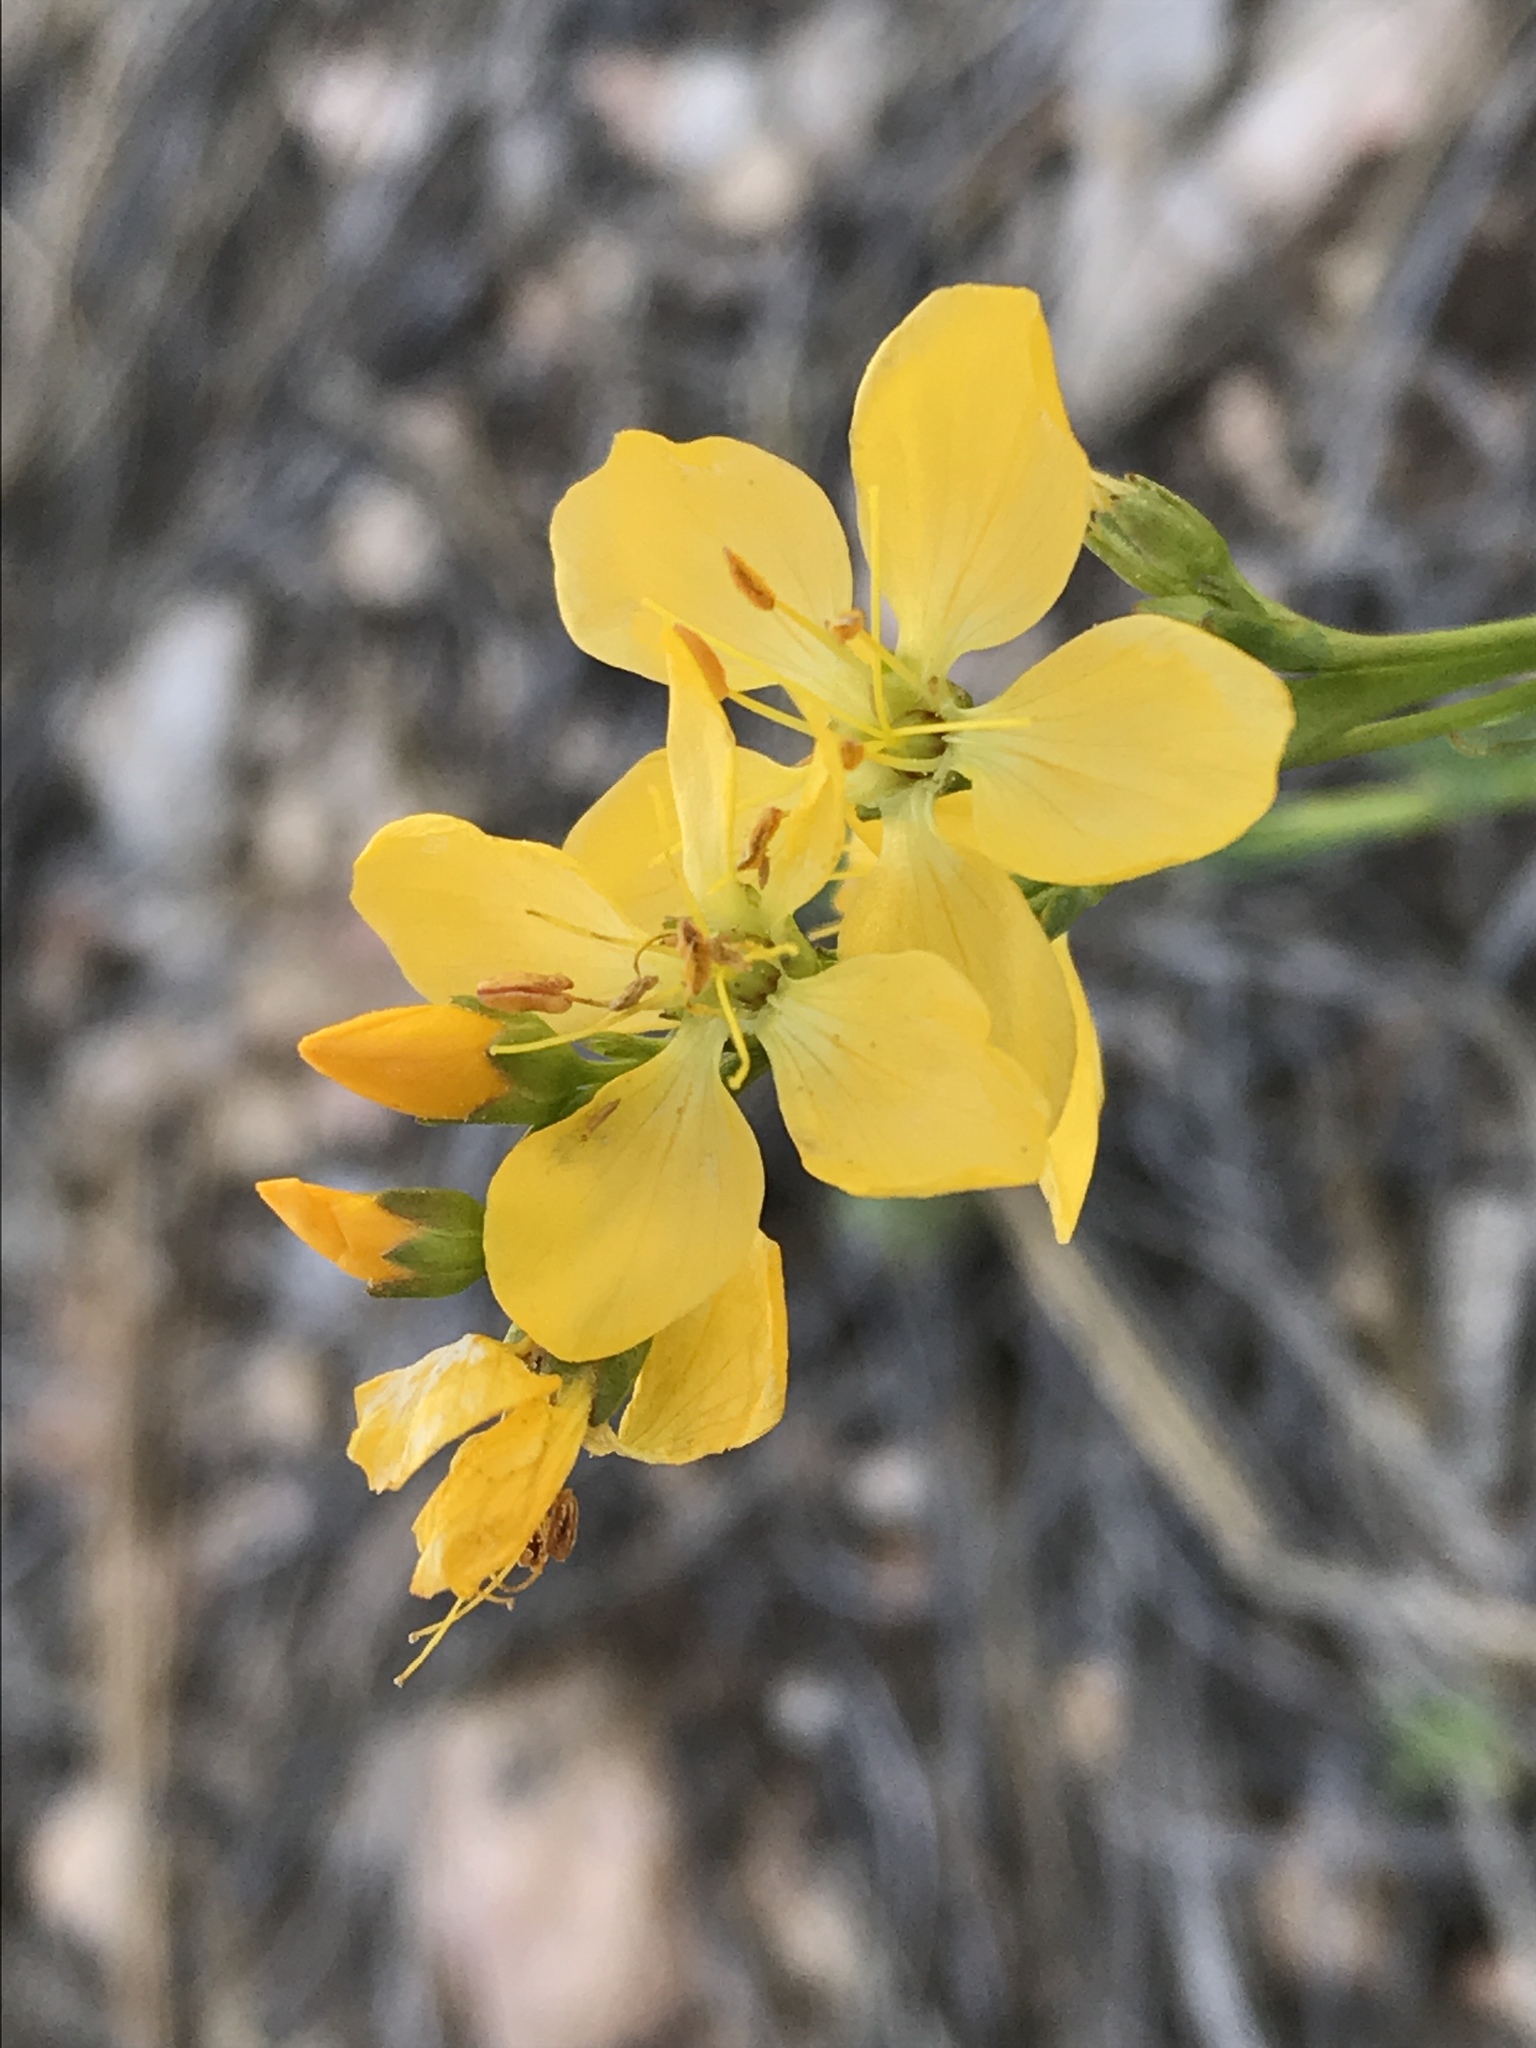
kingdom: Plantae
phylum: Tracheophyta
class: Magnoliopsida
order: Malpighiales
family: Linaceae
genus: Linum
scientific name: Linum kingii
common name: King's yellow flax
